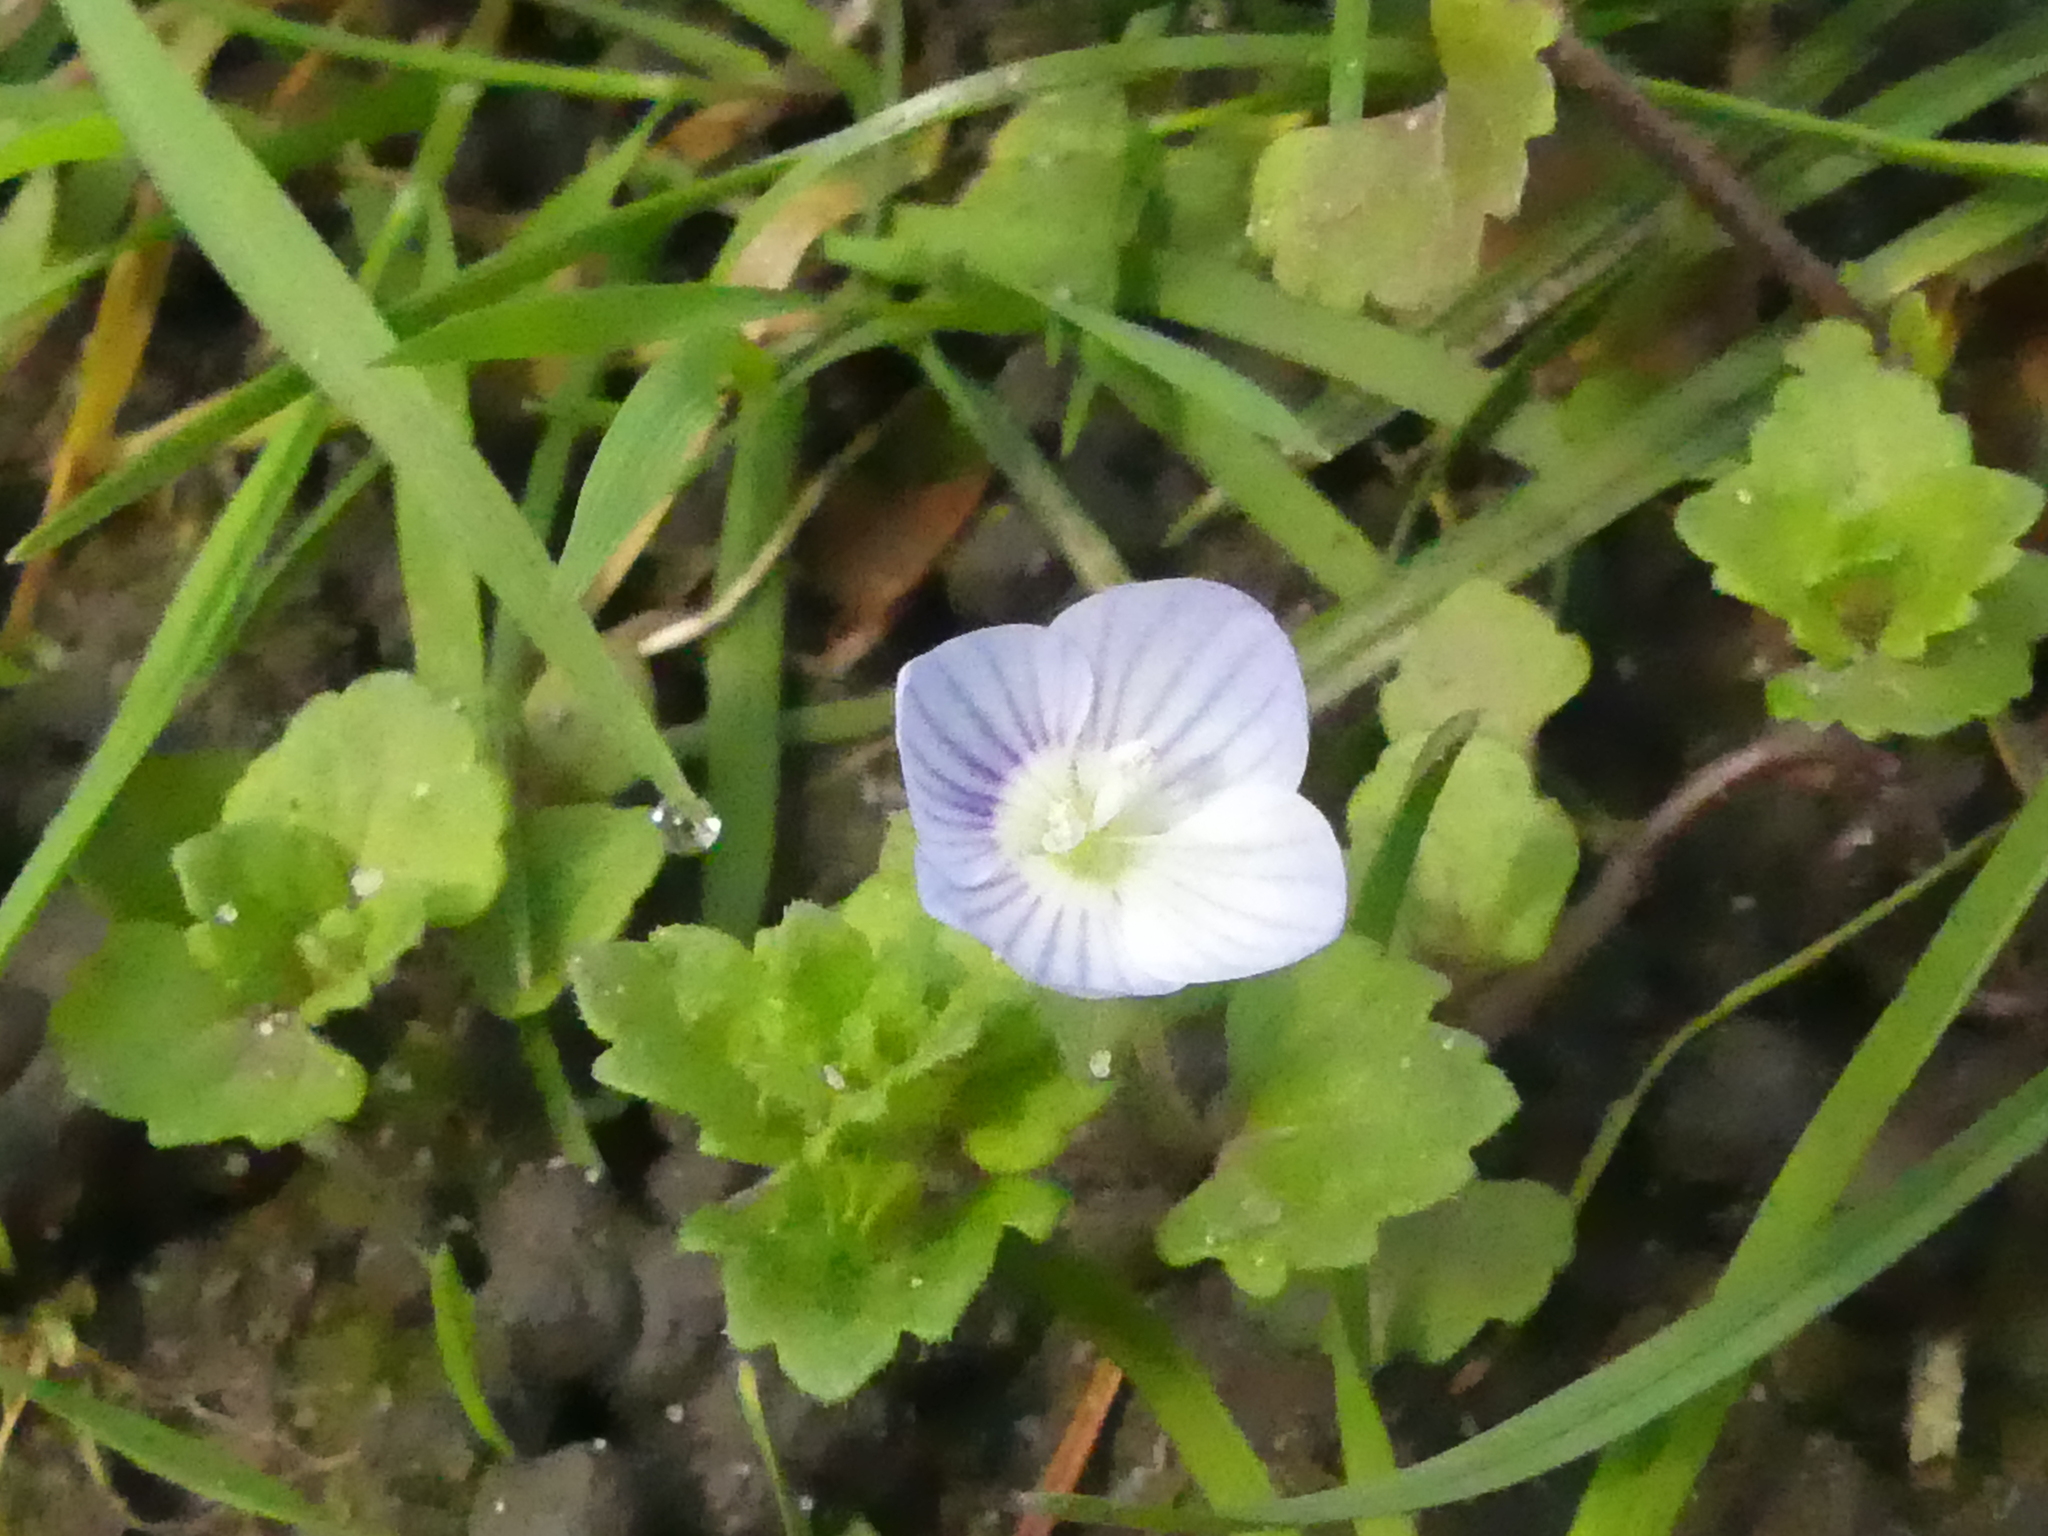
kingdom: Plantae
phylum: Tracheophyta
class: Magnoliopsida
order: Lamiales
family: Plantaginaceae
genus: Veronica
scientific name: Veronica persica
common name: Common field-speedwell
